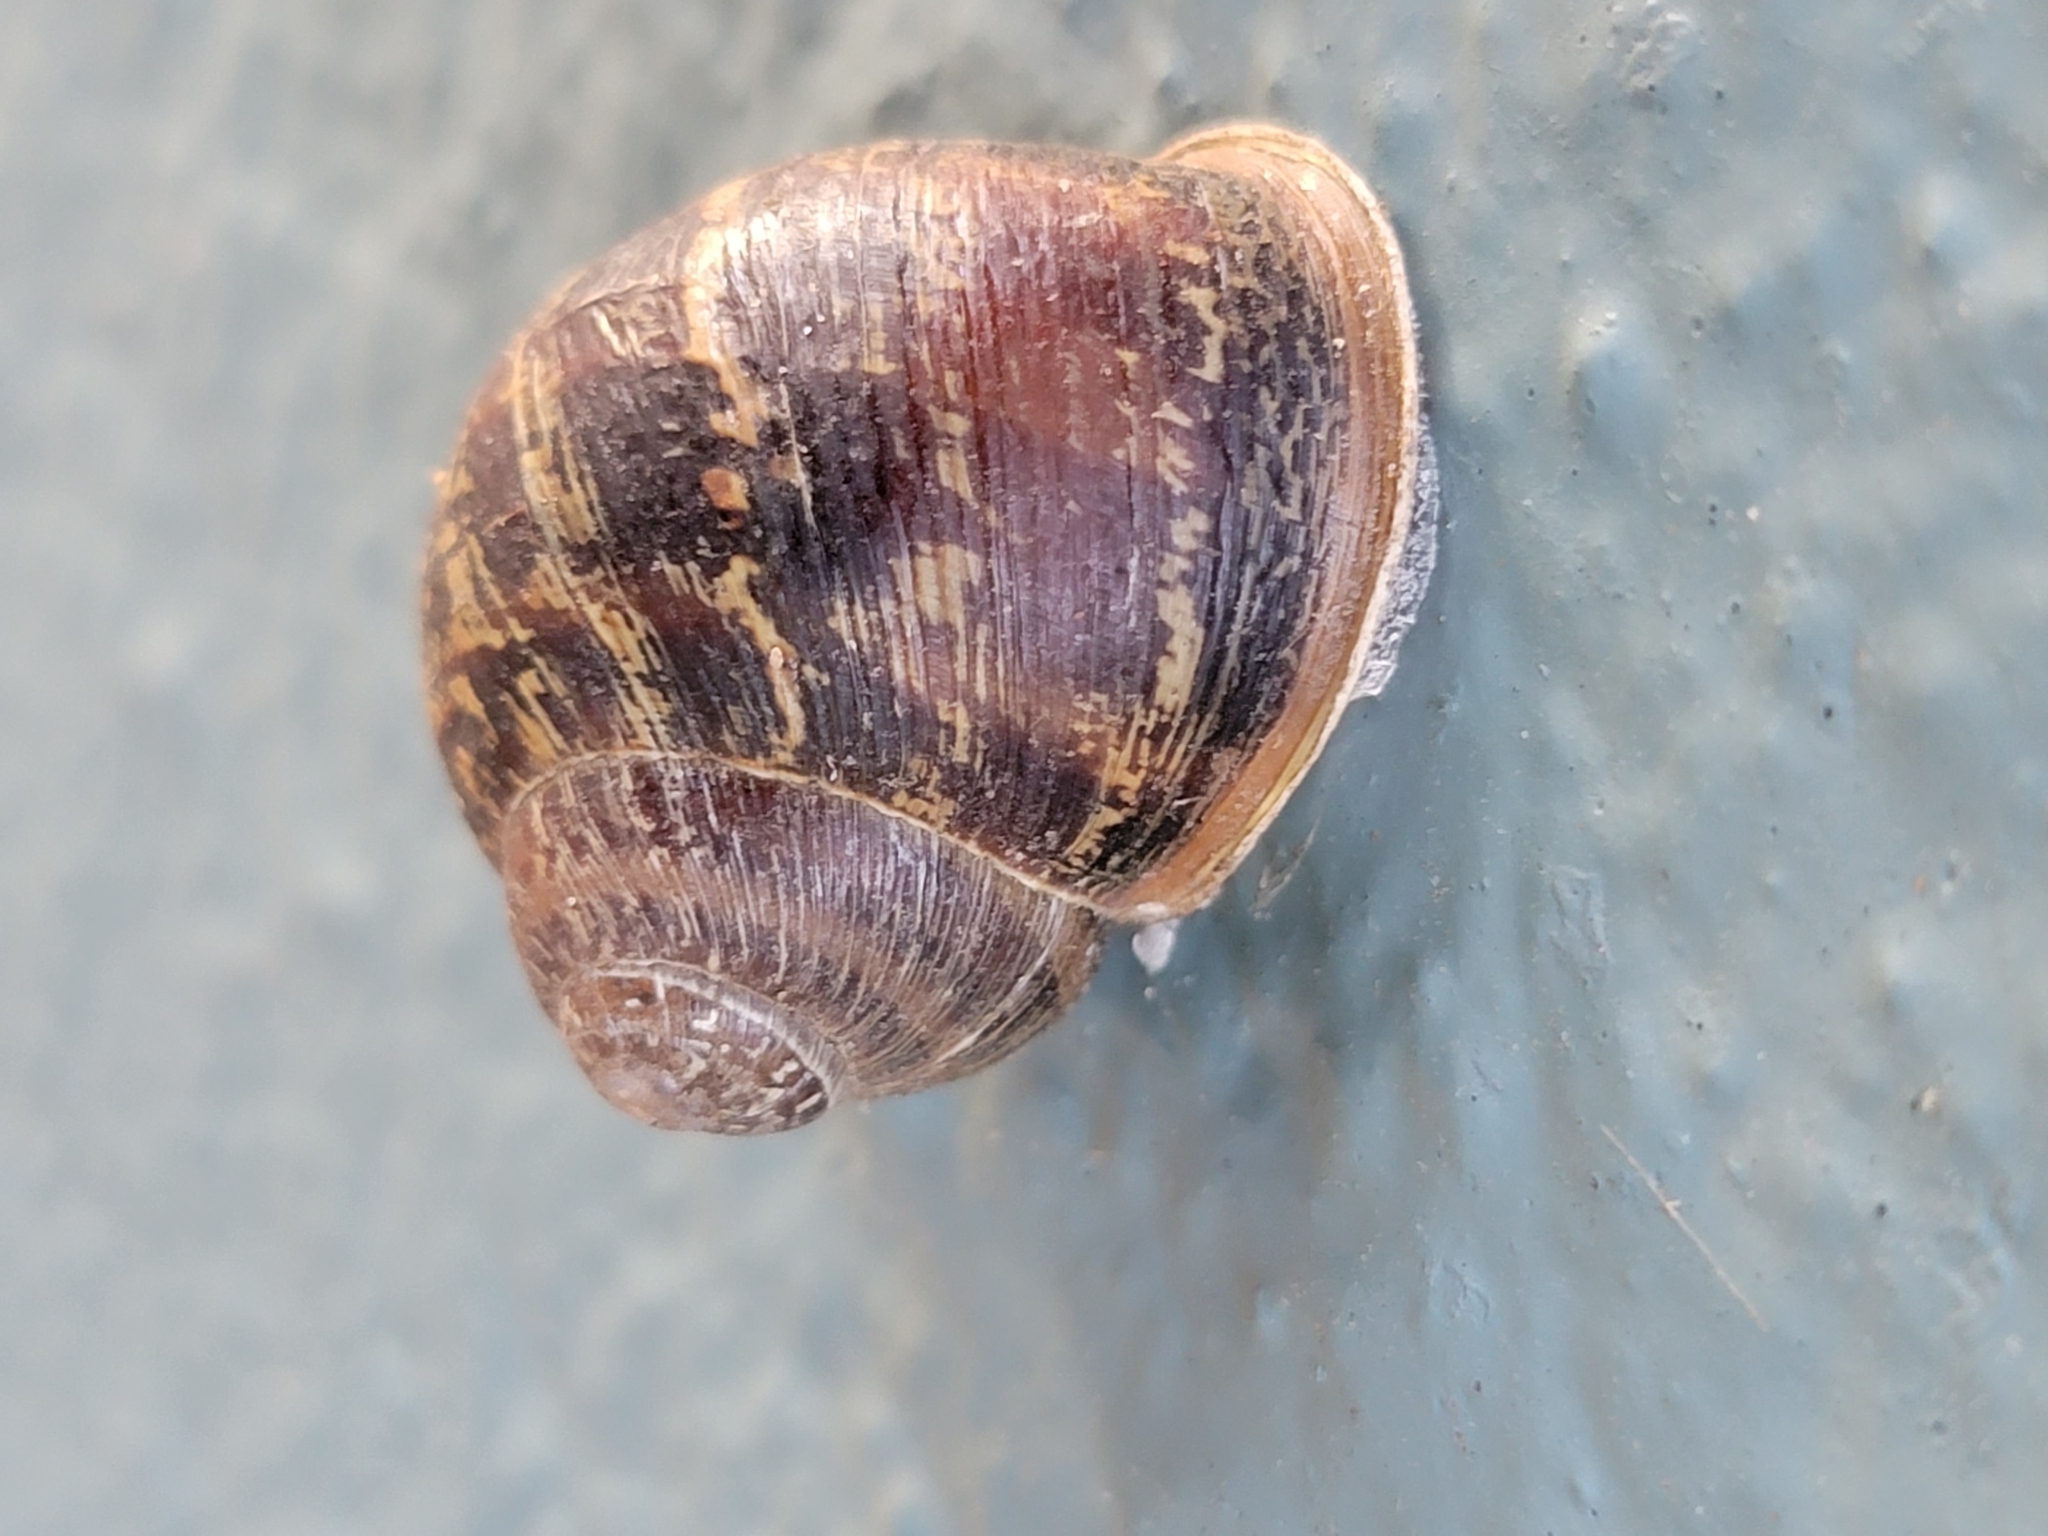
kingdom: Animalia
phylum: Mollusca
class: Gastropoda
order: Stylommatophora
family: Helicidae
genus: Cornu
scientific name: Cornu aspersum
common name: Brown garden snail
